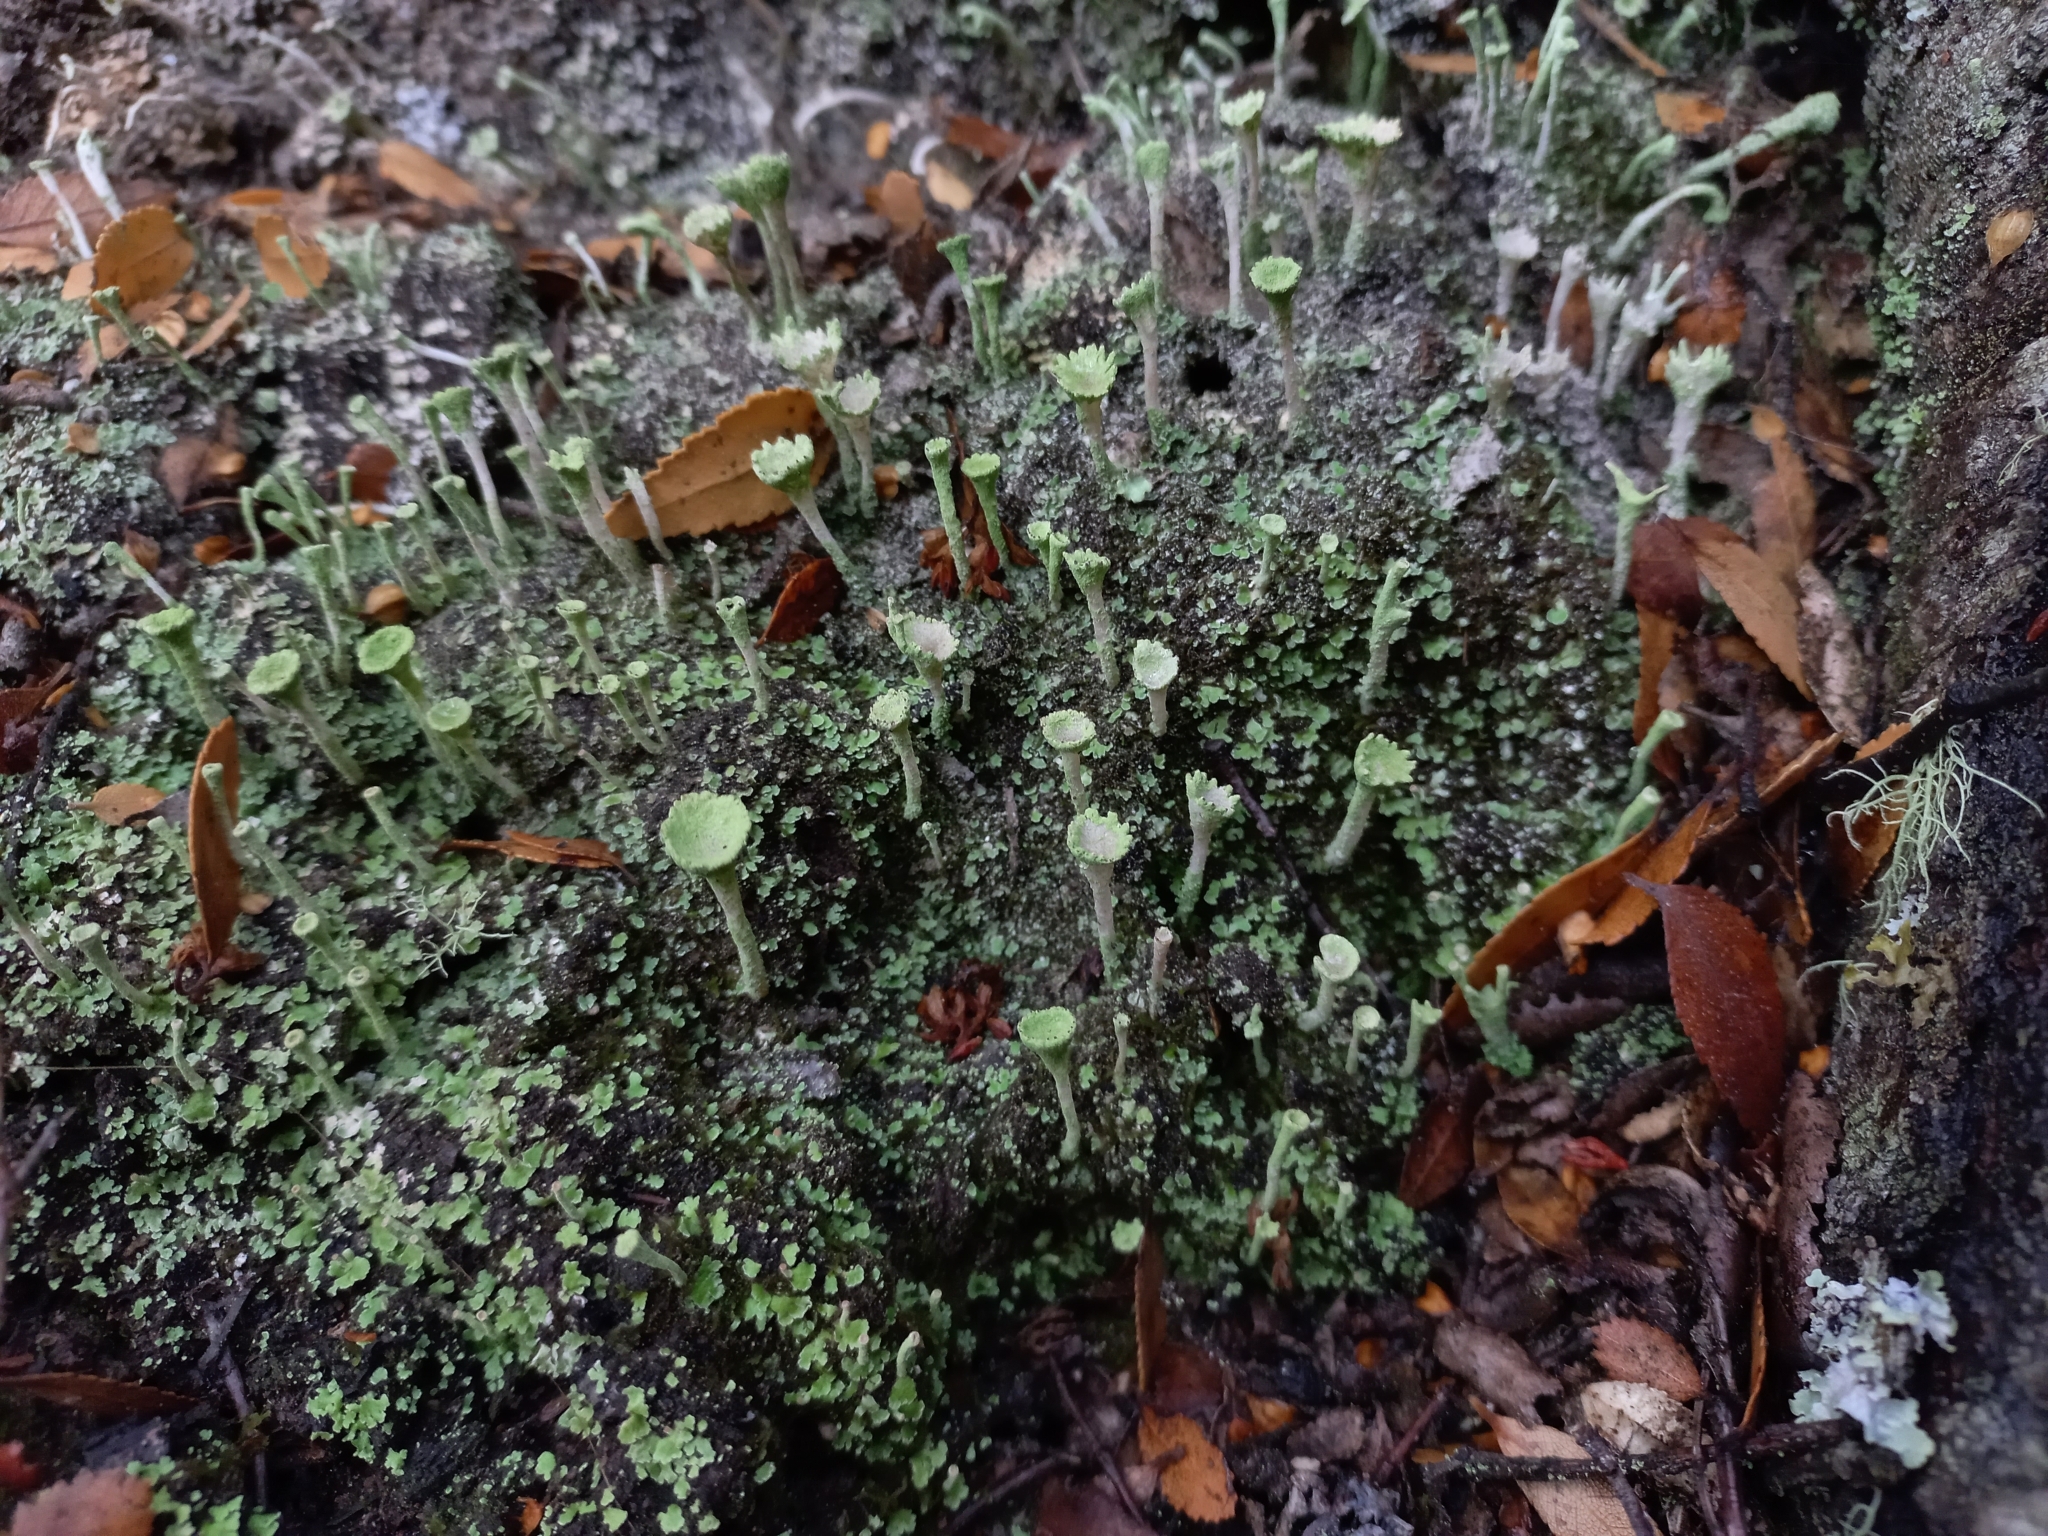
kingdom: Fungi
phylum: Ascomycota
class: Lecanoromycetes
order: Lecanorales
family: Cladoniaceae
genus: Cladonia
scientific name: Cladonia fimbriata
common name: Powdered trumpet lichen
